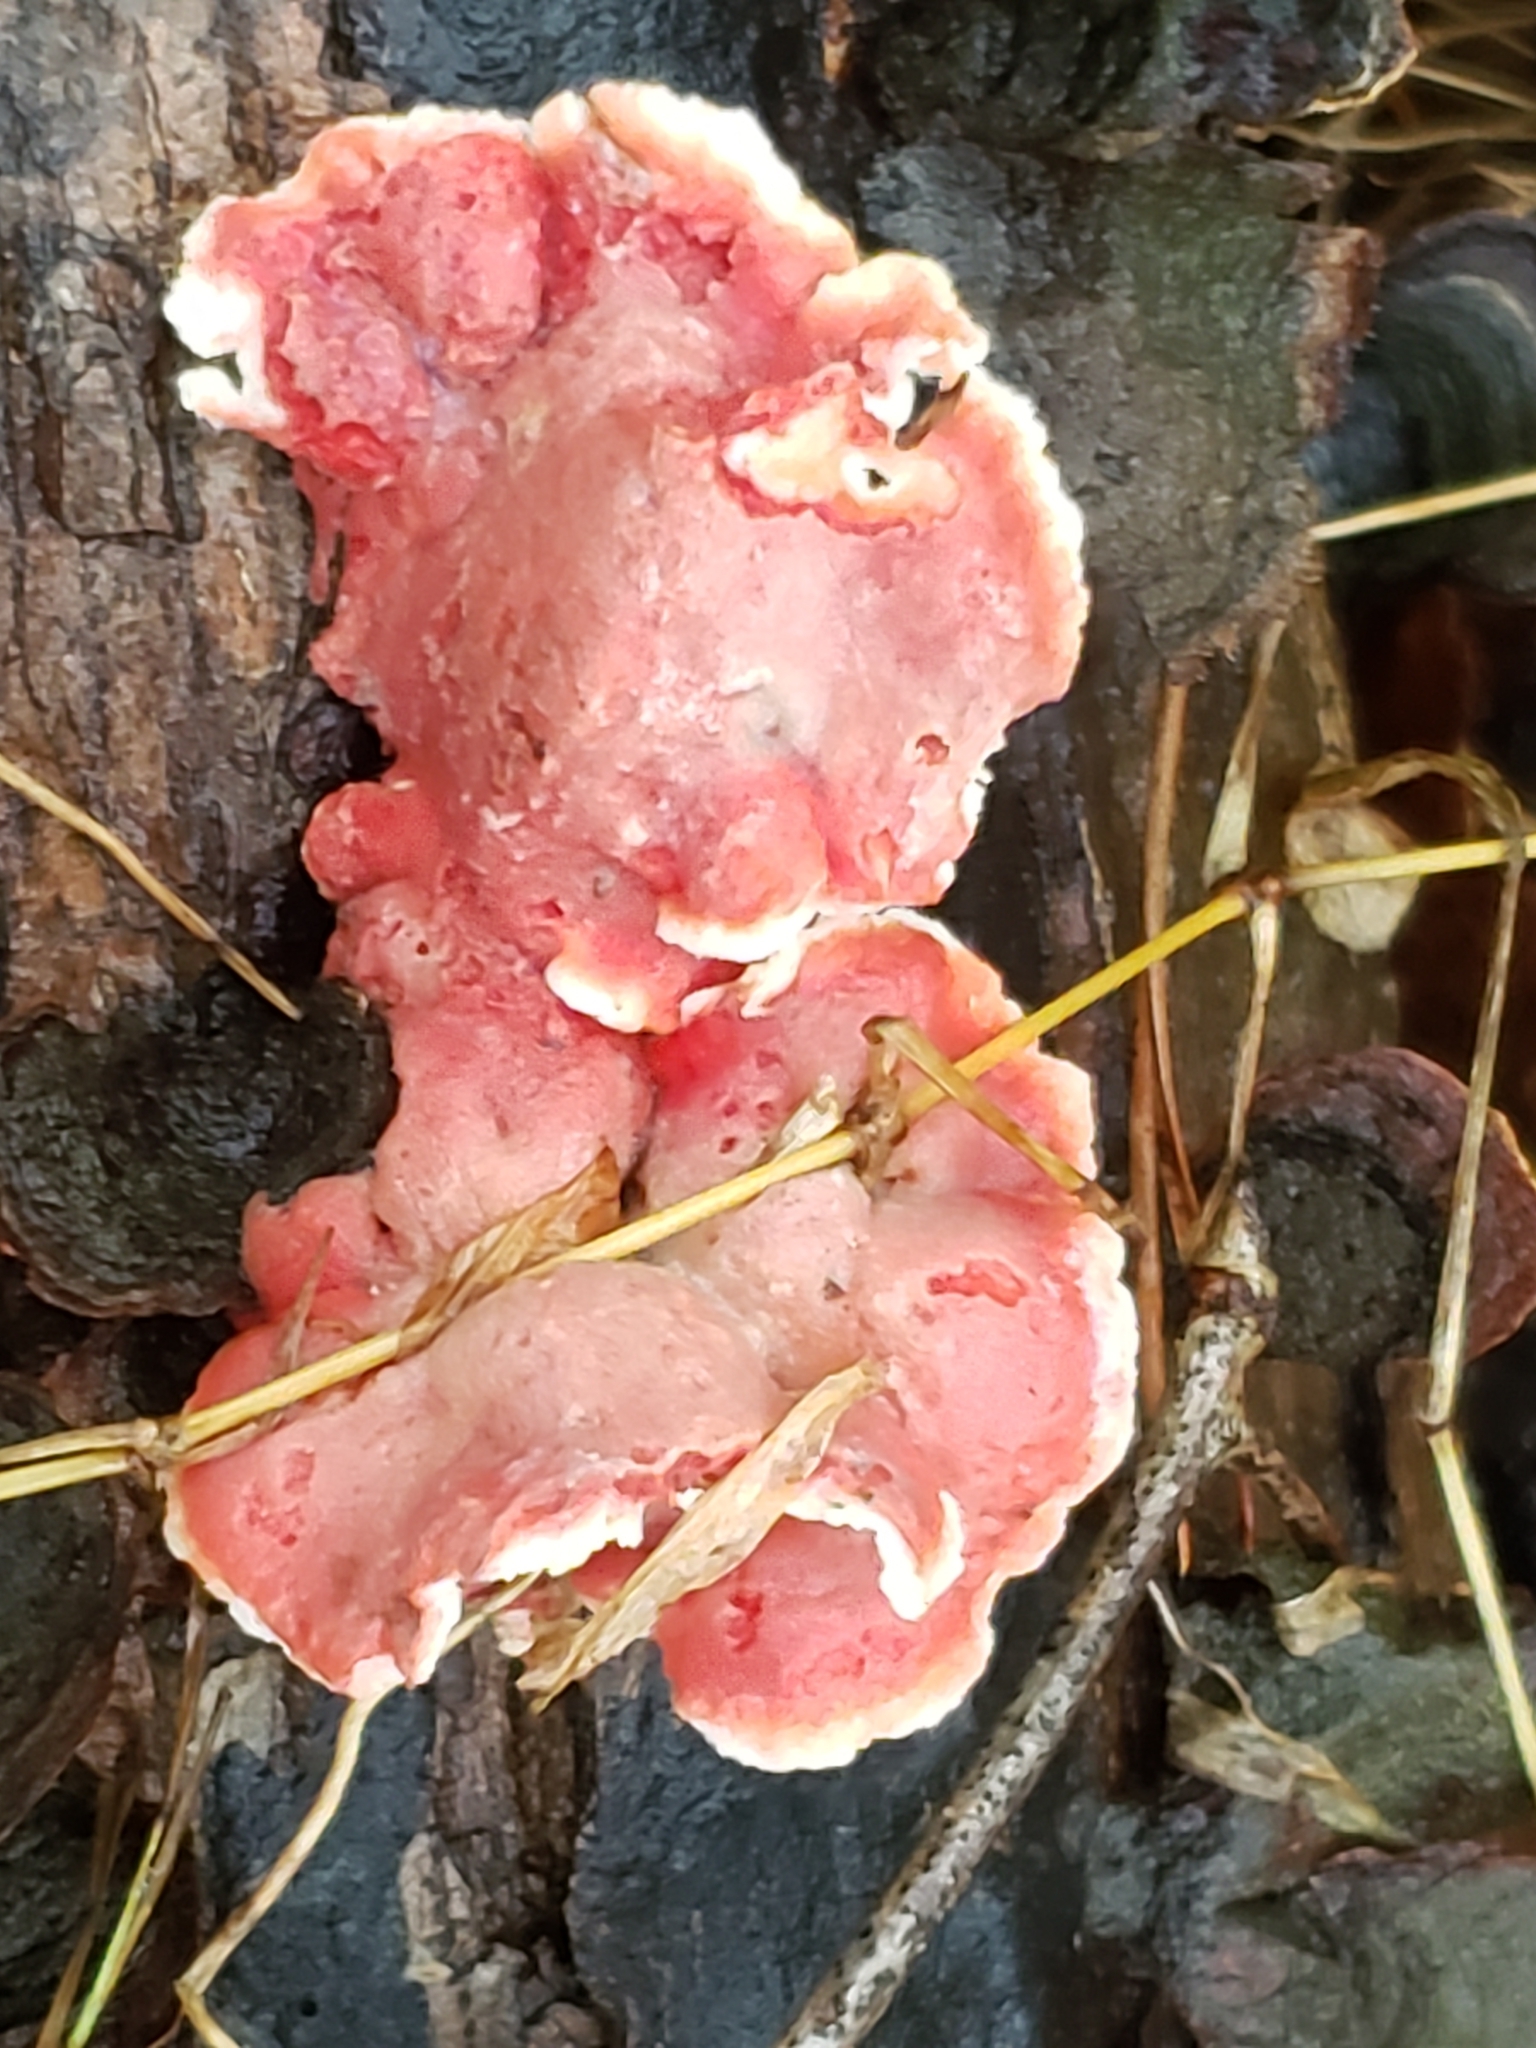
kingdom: Fungi
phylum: Basidiomycota
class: Agaricomycetes
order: Polyporales
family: Irpicaceae
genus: Byssomerulius
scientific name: Byssomerulius incarnatus
